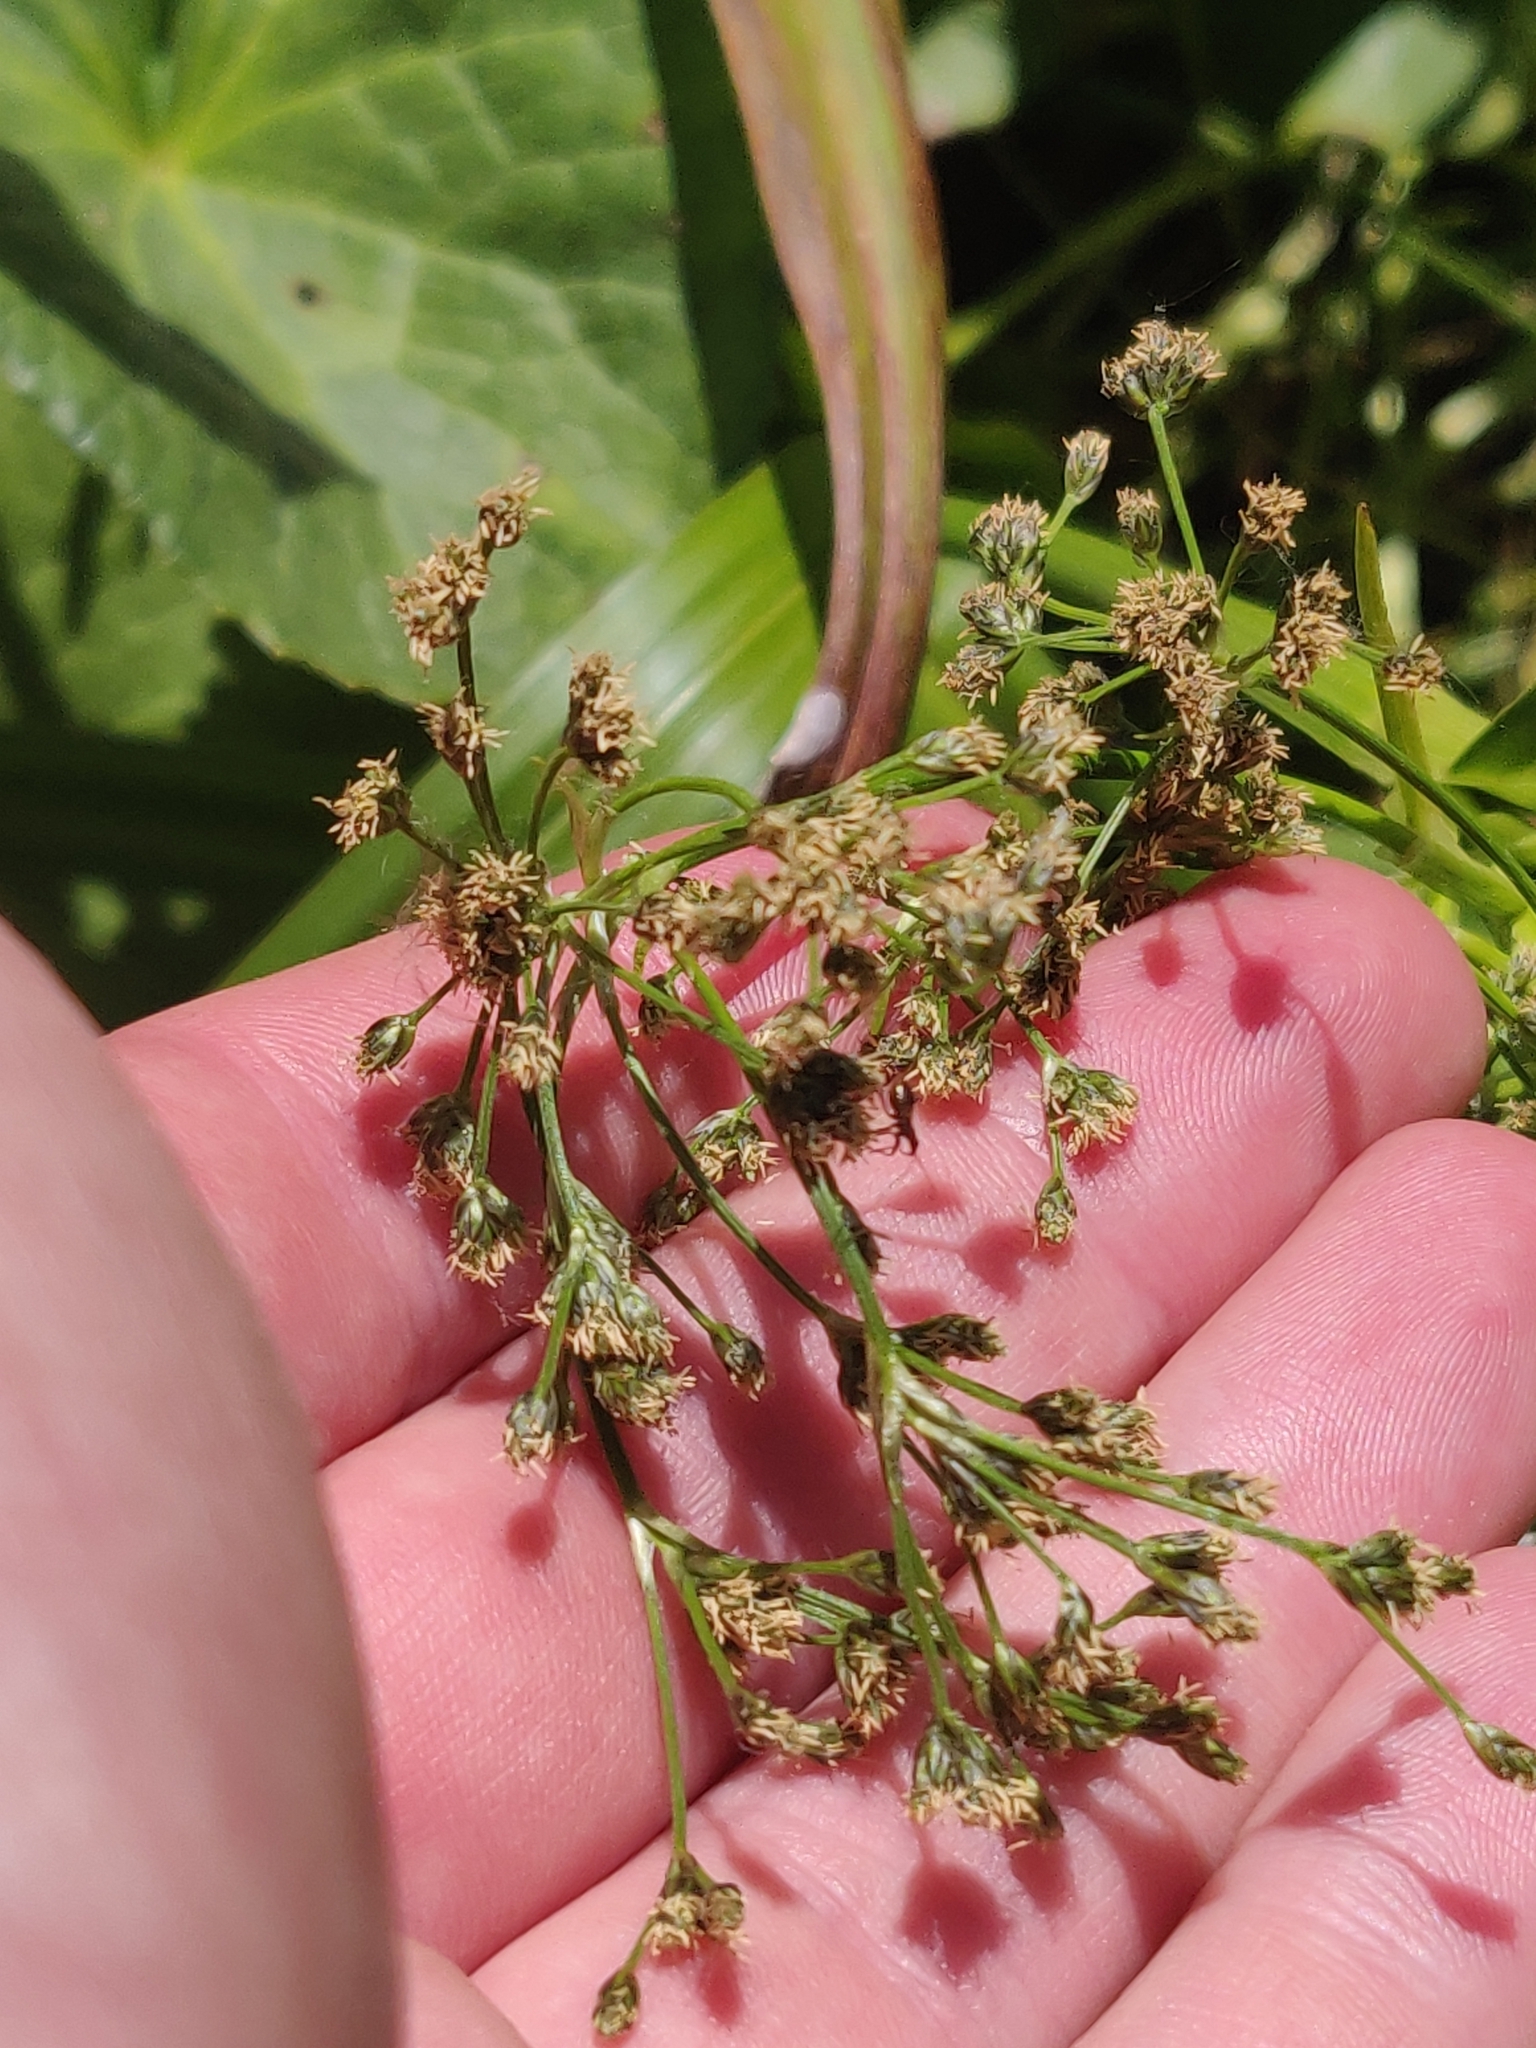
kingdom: Plantae
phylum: Tracheophyta
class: Liliopsida
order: Poales
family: Cyperaceae
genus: Scirpus
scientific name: Scirpus sylvaticus
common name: Wood club-rush
